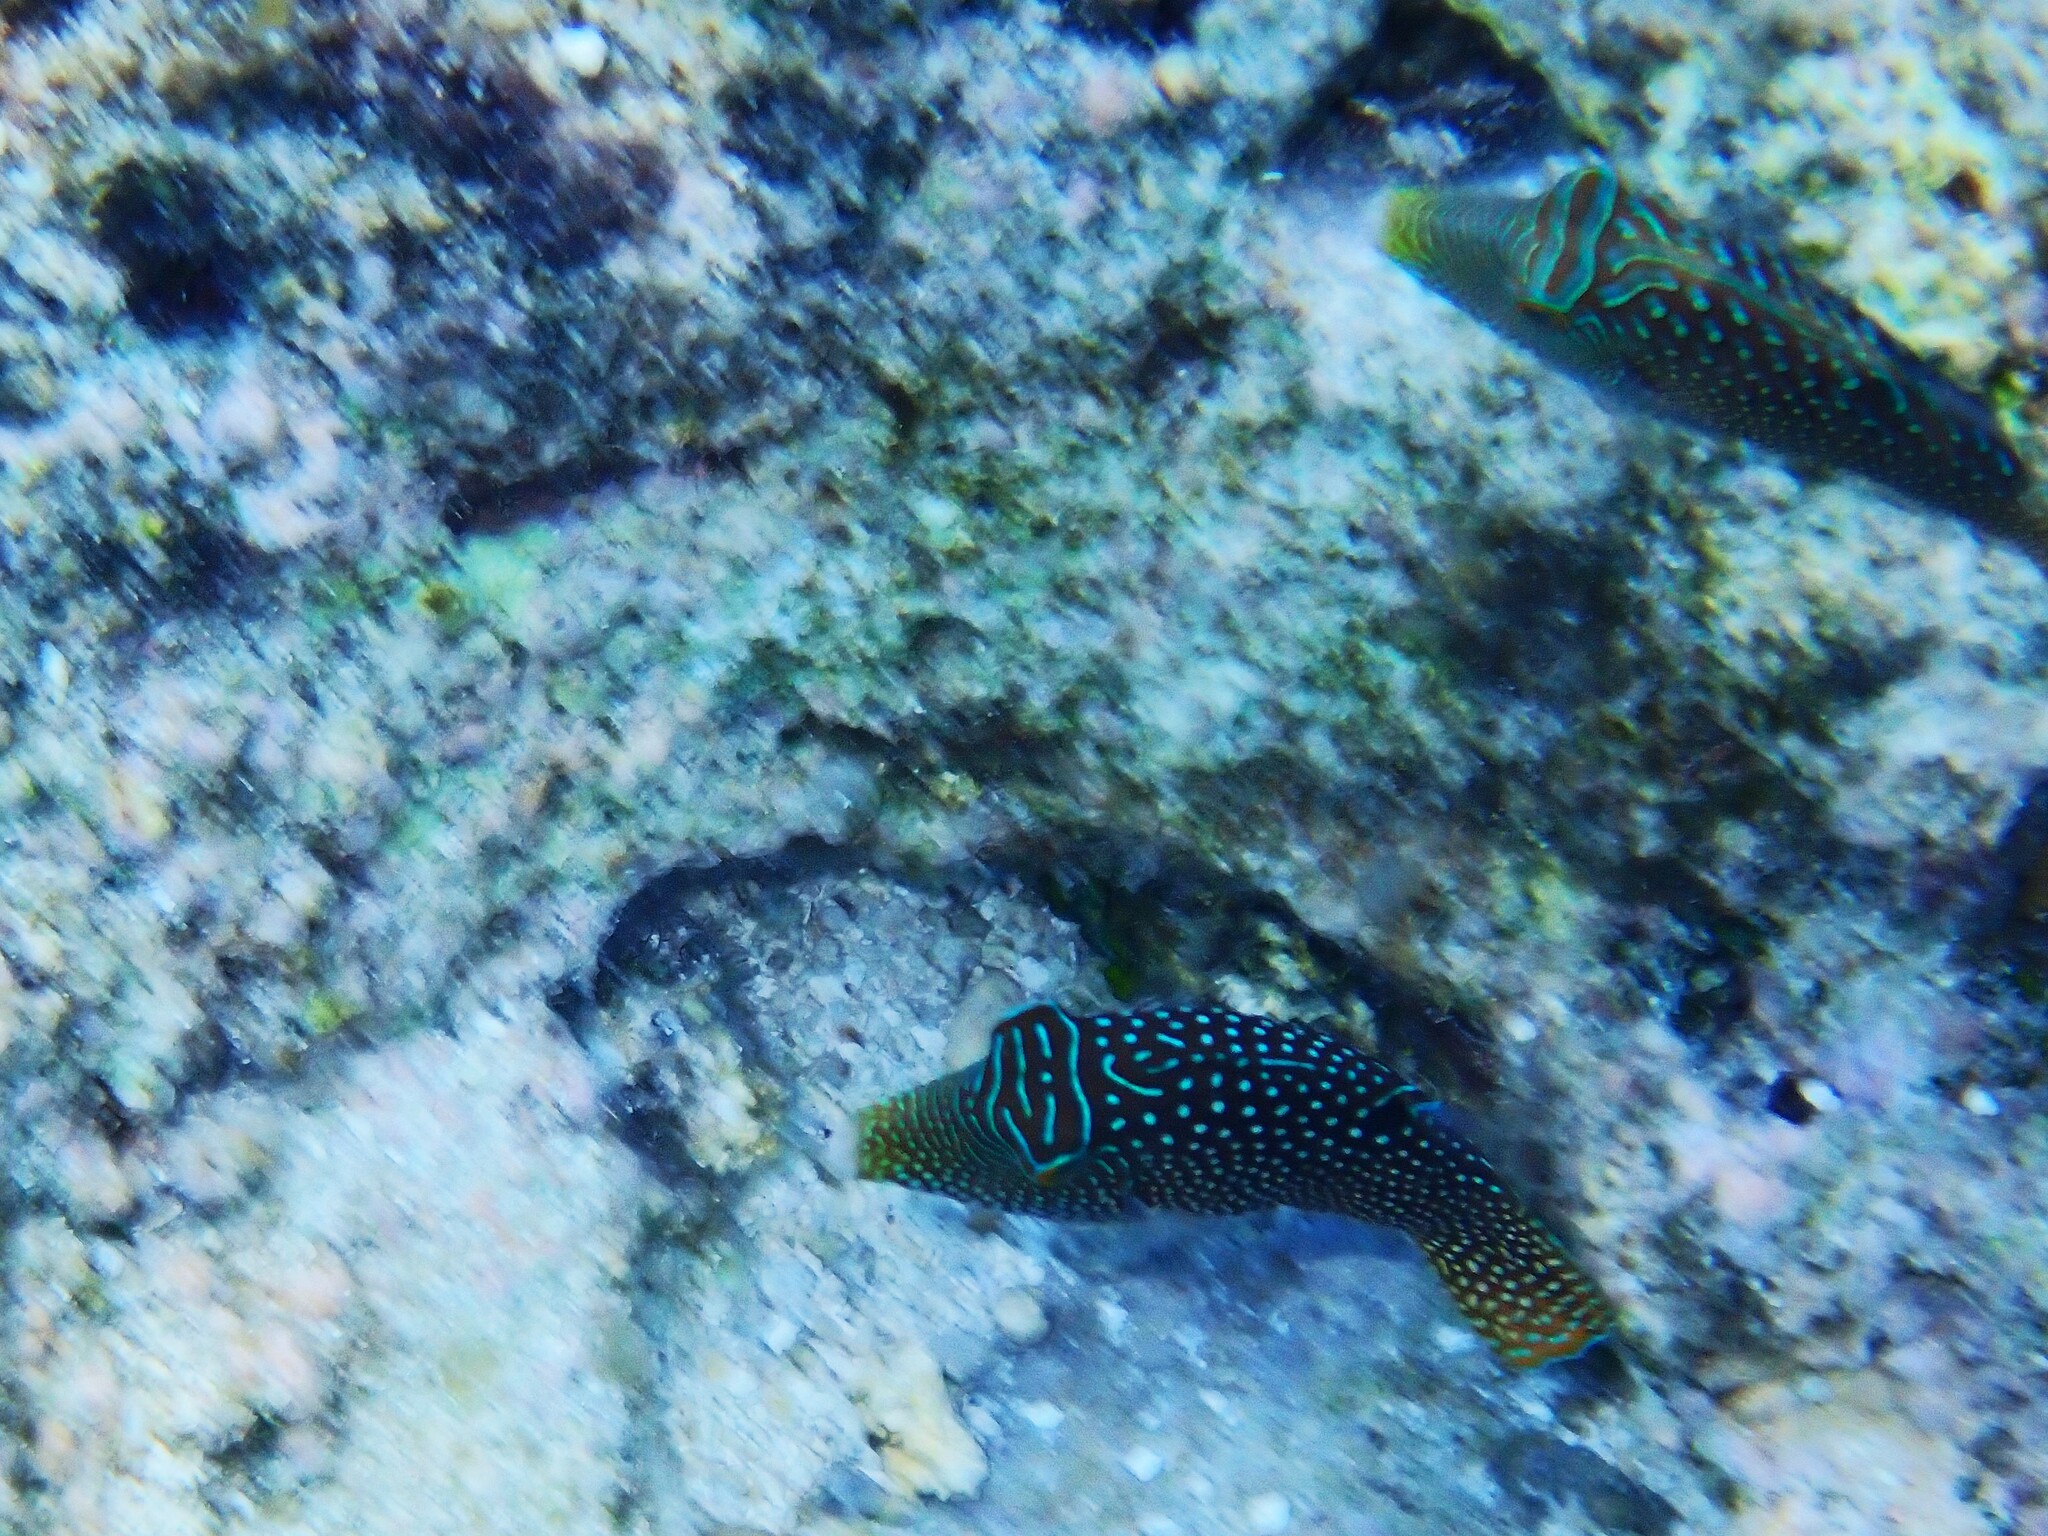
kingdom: Animalia
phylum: Chordata
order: Tetraodontiformes
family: Tetraodontidae
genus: Canthigaster
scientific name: Canthigaster solandri
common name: False-eye toby
